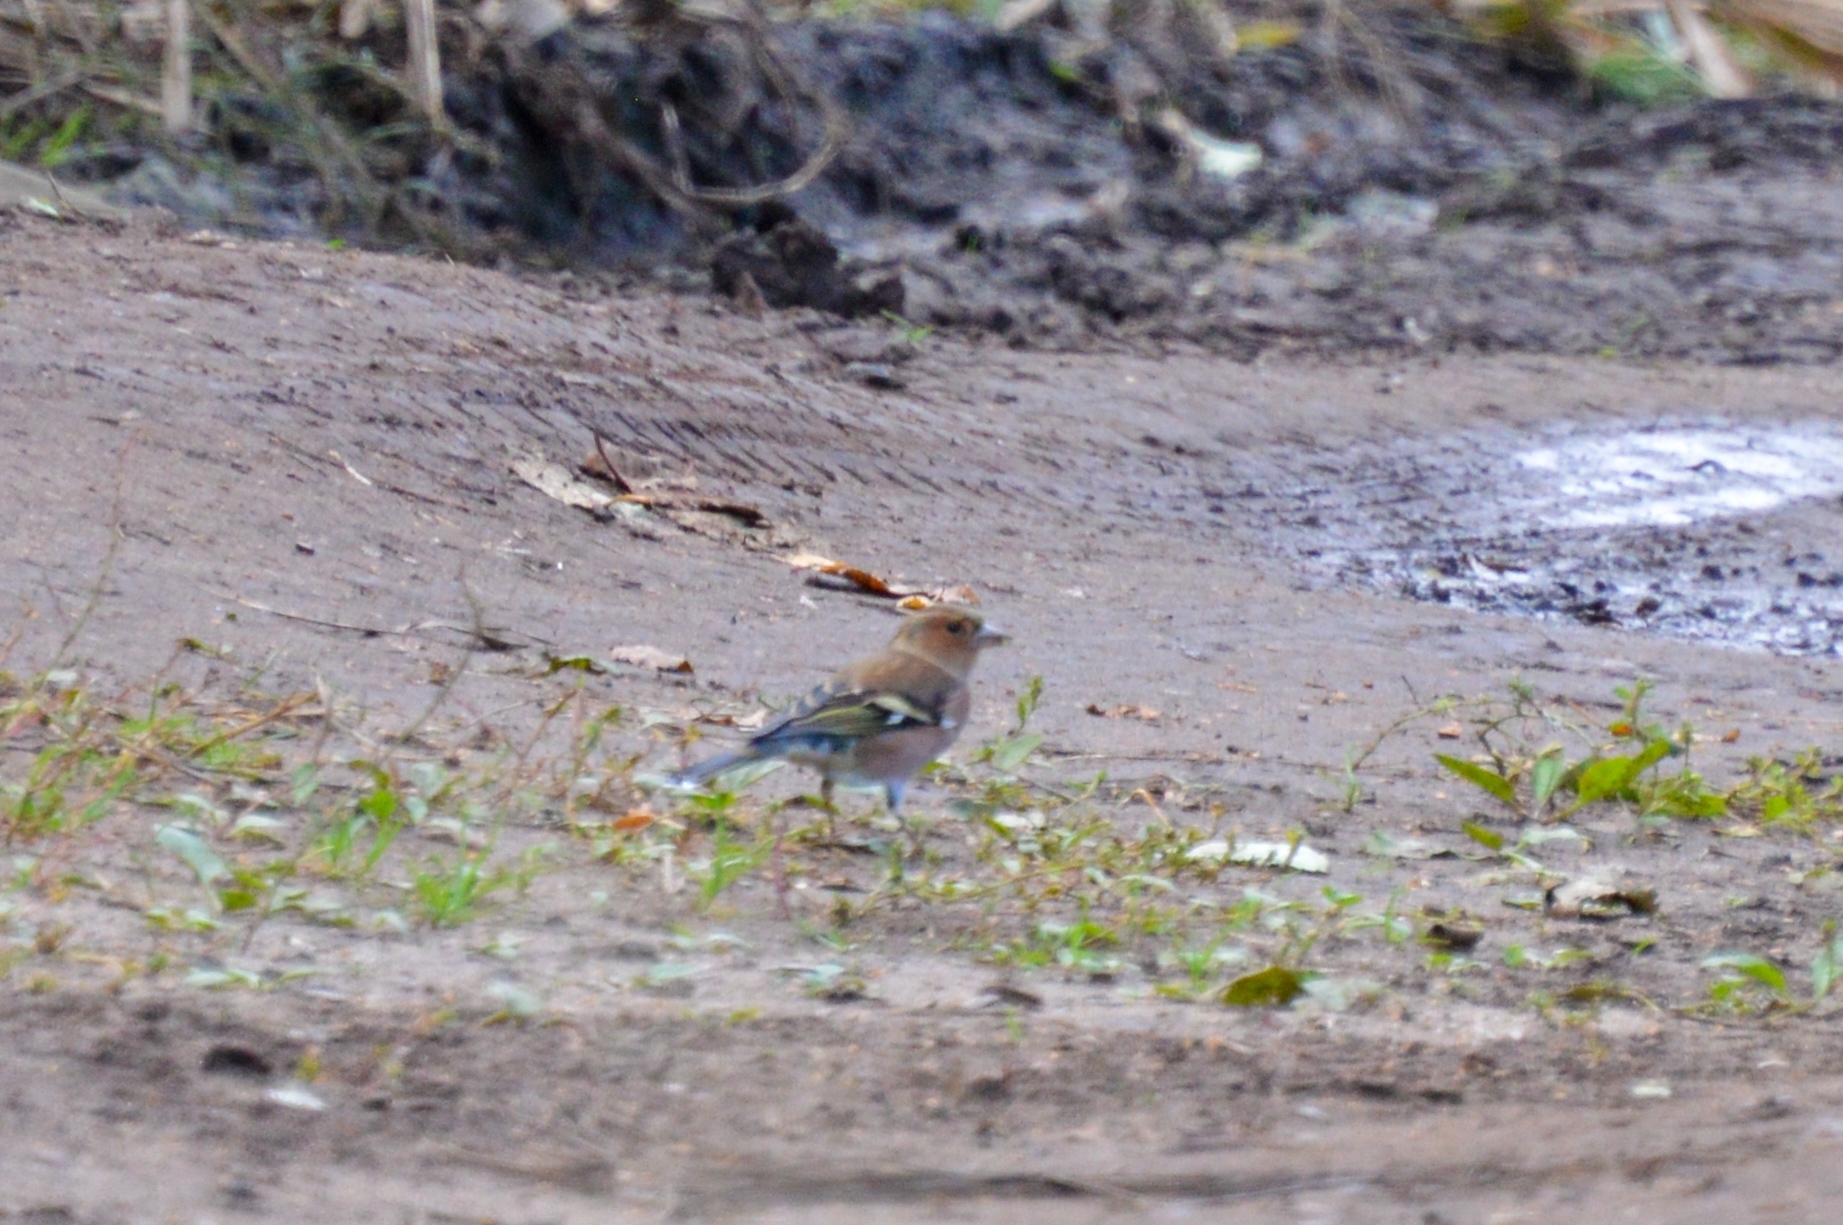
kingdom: Animalia
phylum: Chordata
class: Aves
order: Passeriformes
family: Fringillidae
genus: Fringilla
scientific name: Fringilla coelebs
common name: Common chaffinch
